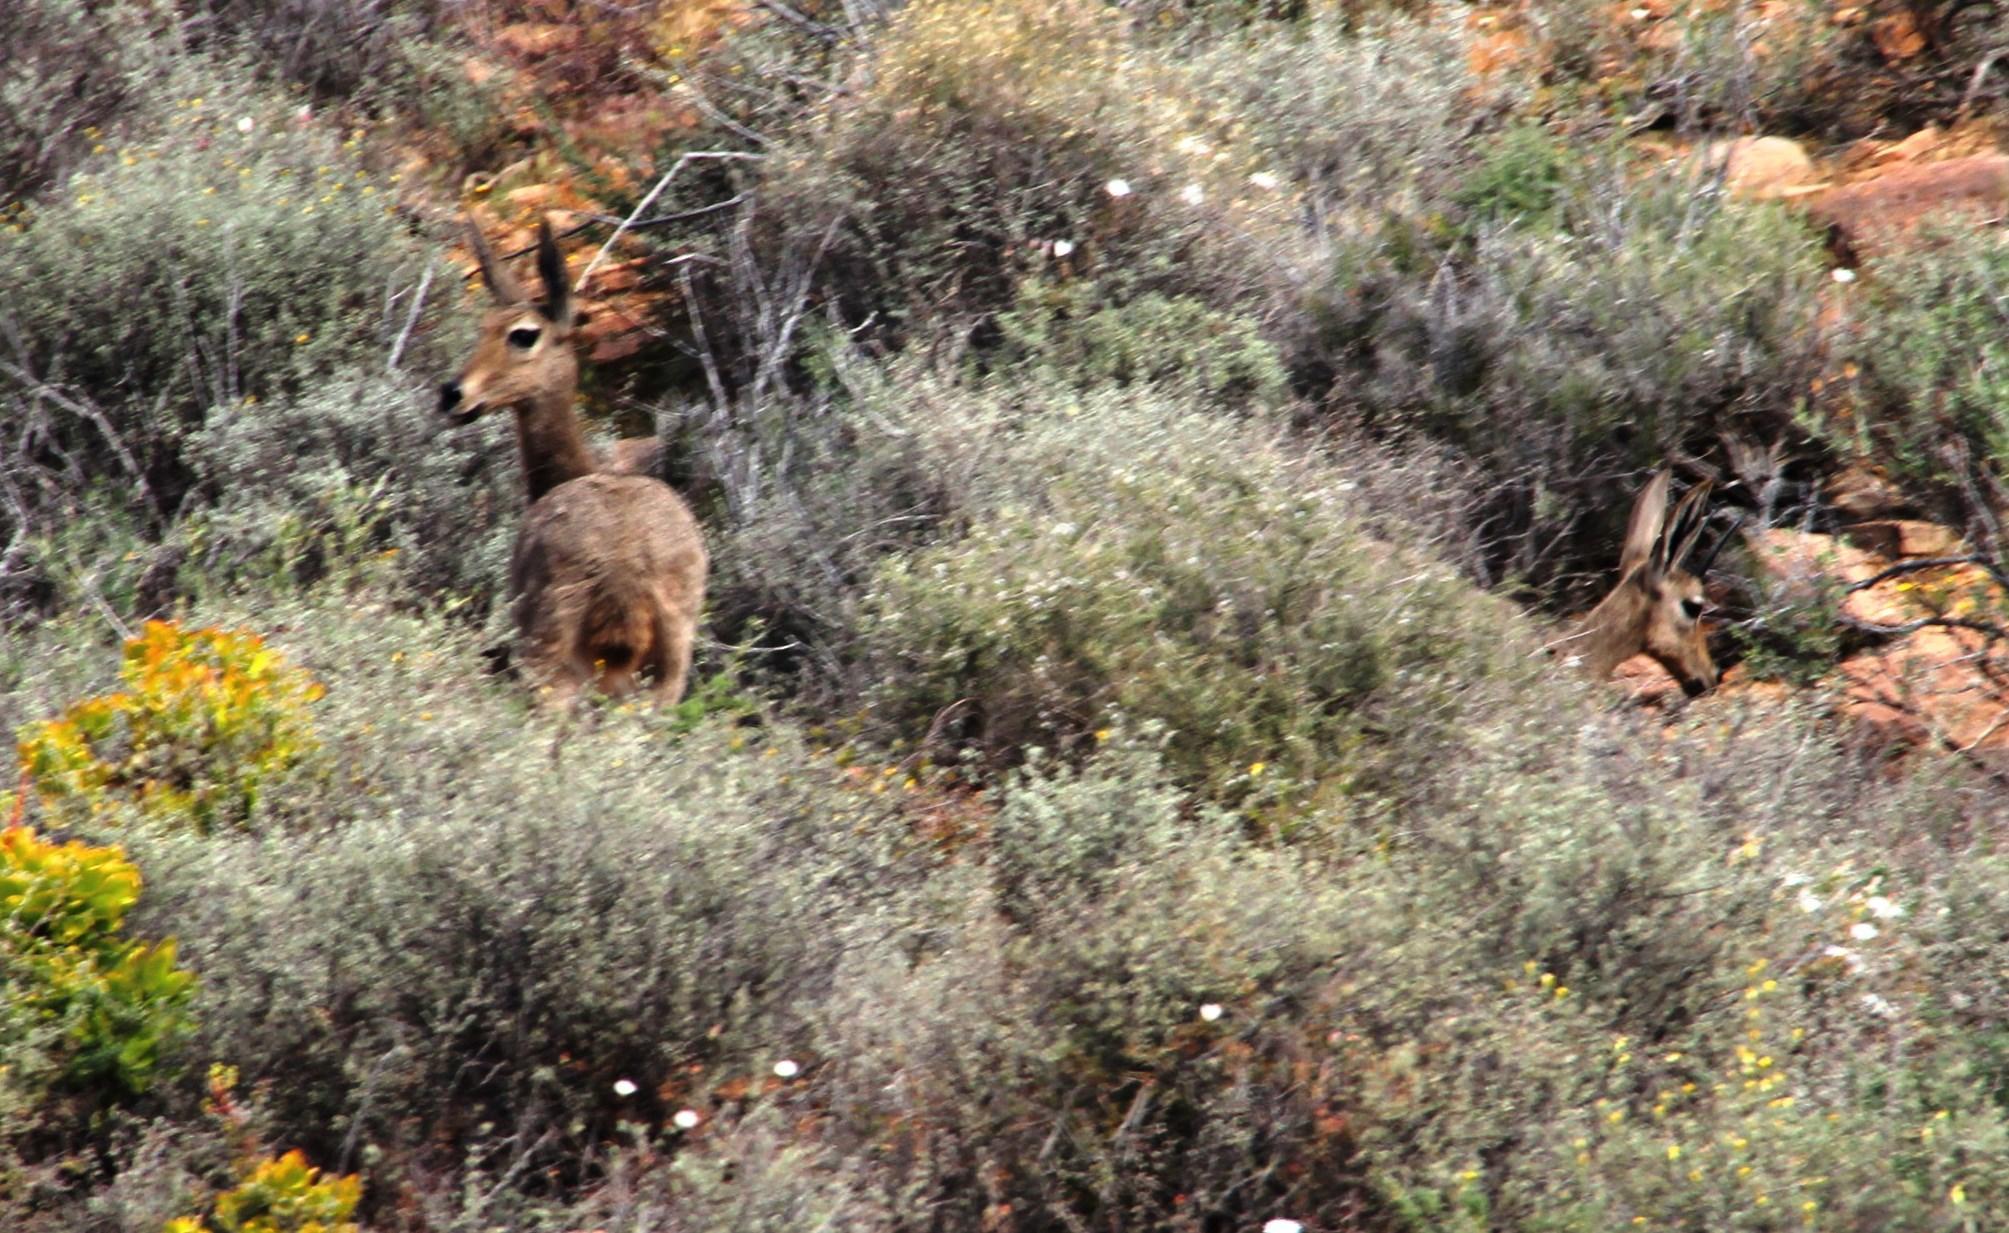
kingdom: Animalia
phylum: Chordata
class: Mammalia
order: Artiodactyla
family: Bovidae
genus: Pelea
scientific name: Pelea capreolus
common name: Common rhebok
